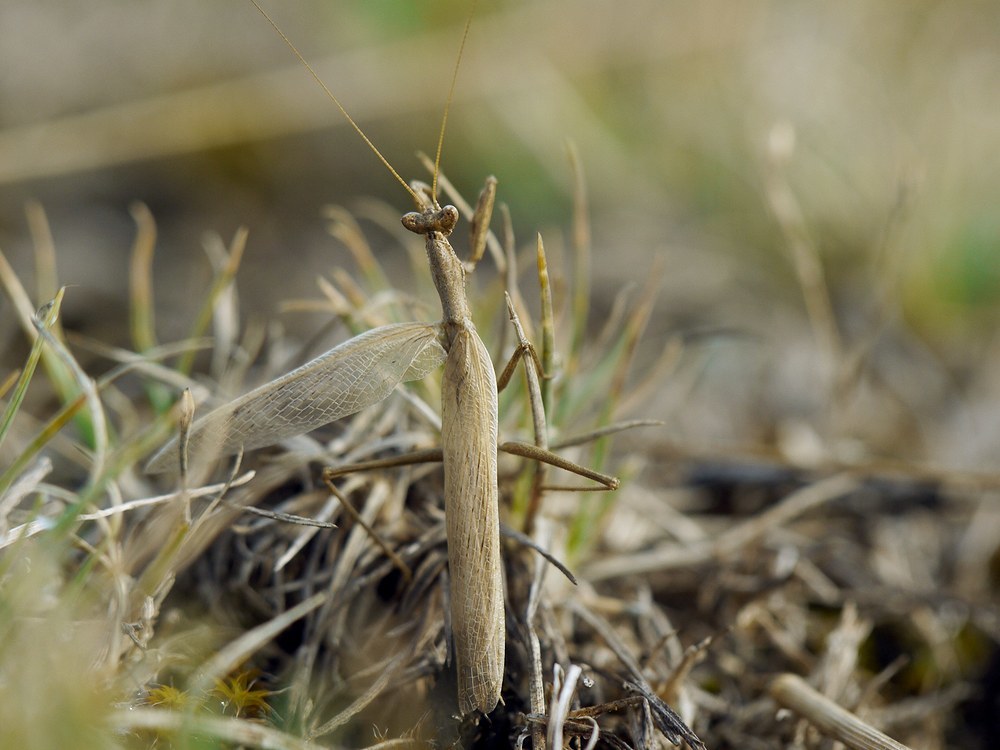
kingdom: Animalia
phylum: Arthropoda
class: Insecta
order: Mantodea
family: Amelidae
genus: Ameles
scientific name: Ameles heldreichi
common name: Heldreich's dwarf mantis
